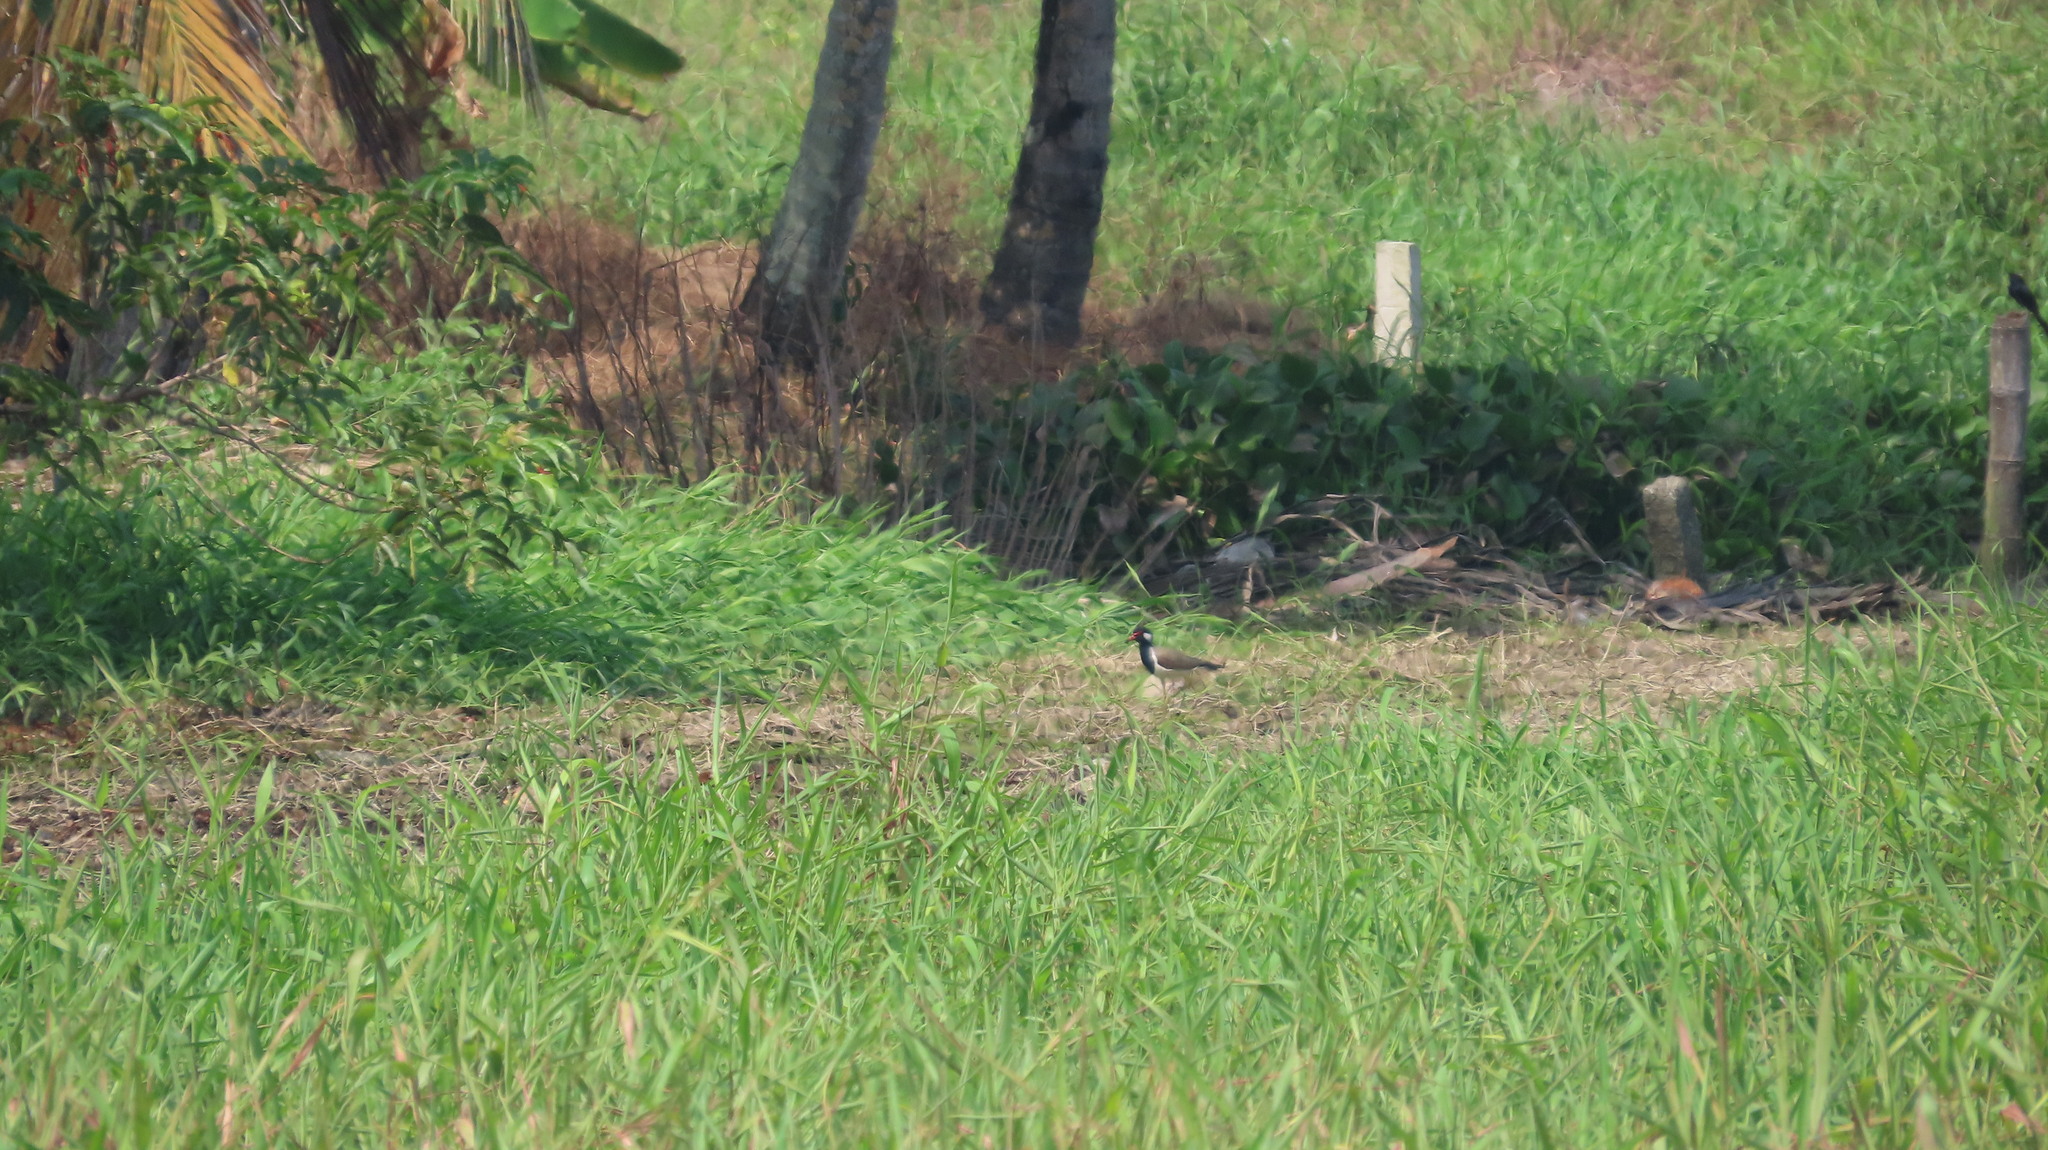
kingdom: Animalia
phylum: Chordata
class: Aves
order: Charadriiformes
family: Charadriidae
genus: Vanellus
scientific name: Vanellus indicus
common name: Red-wattled lapwing
